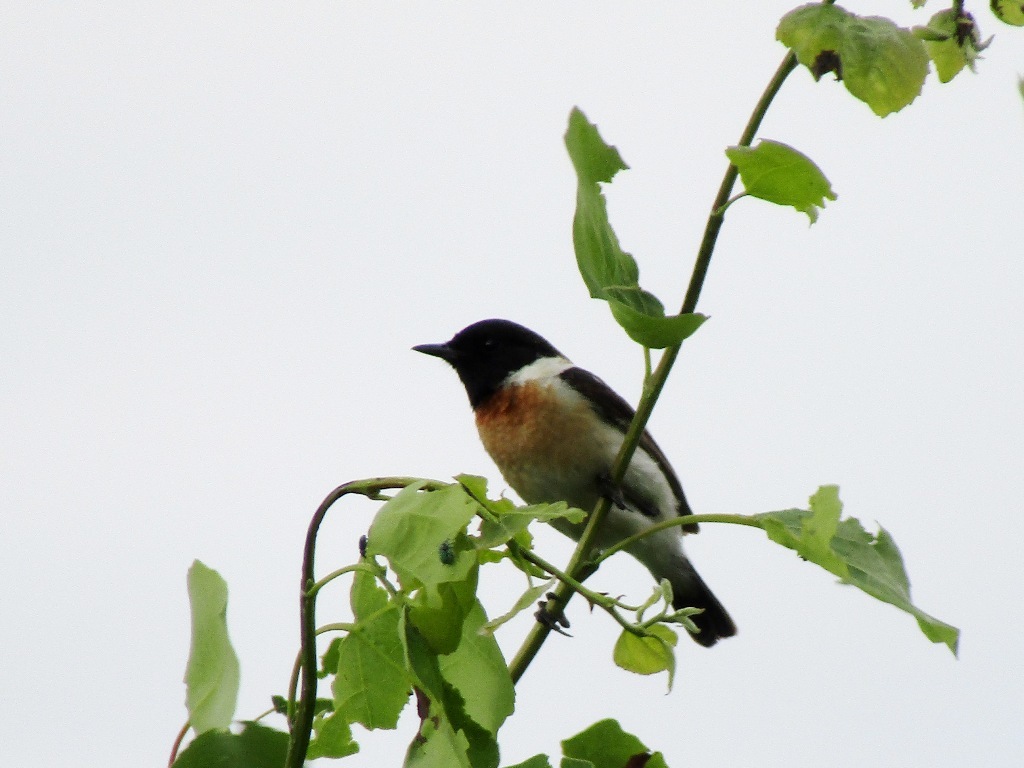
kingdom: Animalia
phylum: Chordata
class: Aves
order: Passeriformes
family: Muscicapidae
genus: Saxicola
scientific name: Saxicola maurus
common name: Siberian stonechat
